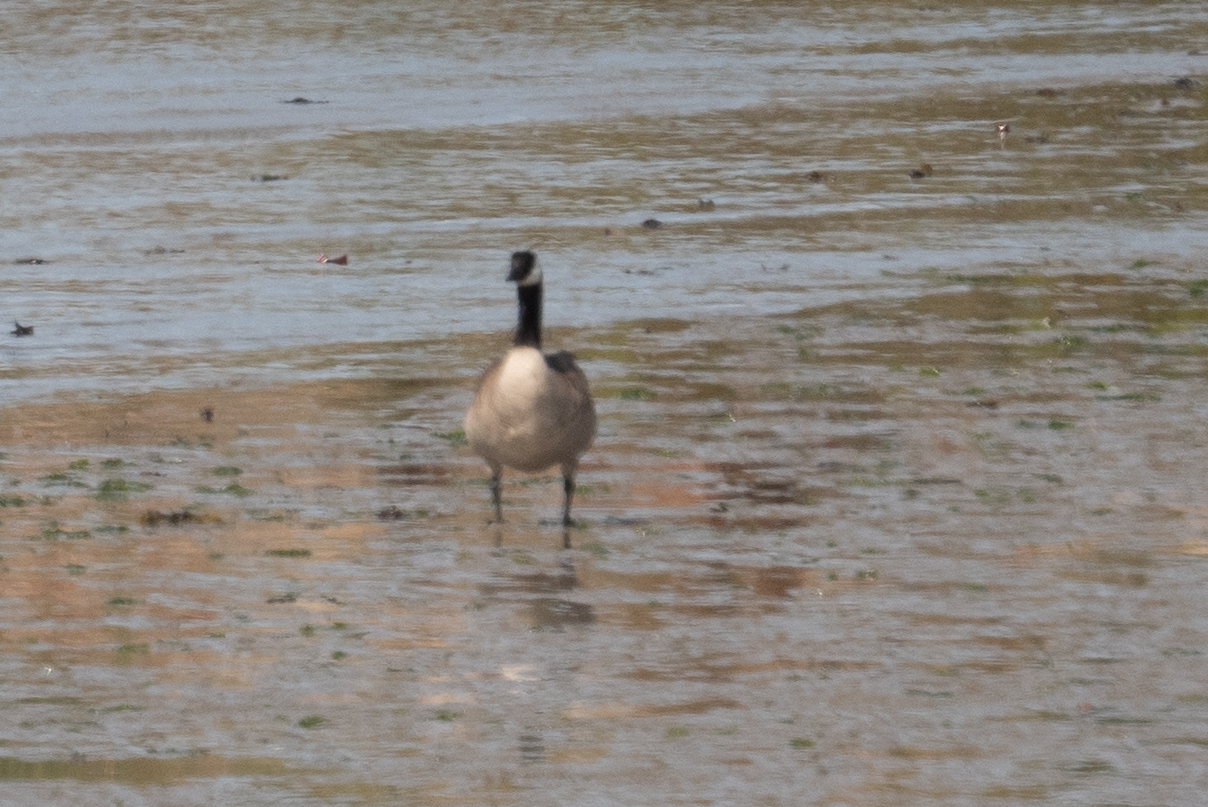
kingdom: Animalia
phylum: Chordata
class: Aves
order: Anseriformes
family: Anatidae
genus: Branta
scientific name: Branta canadensis
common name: Canada goose
